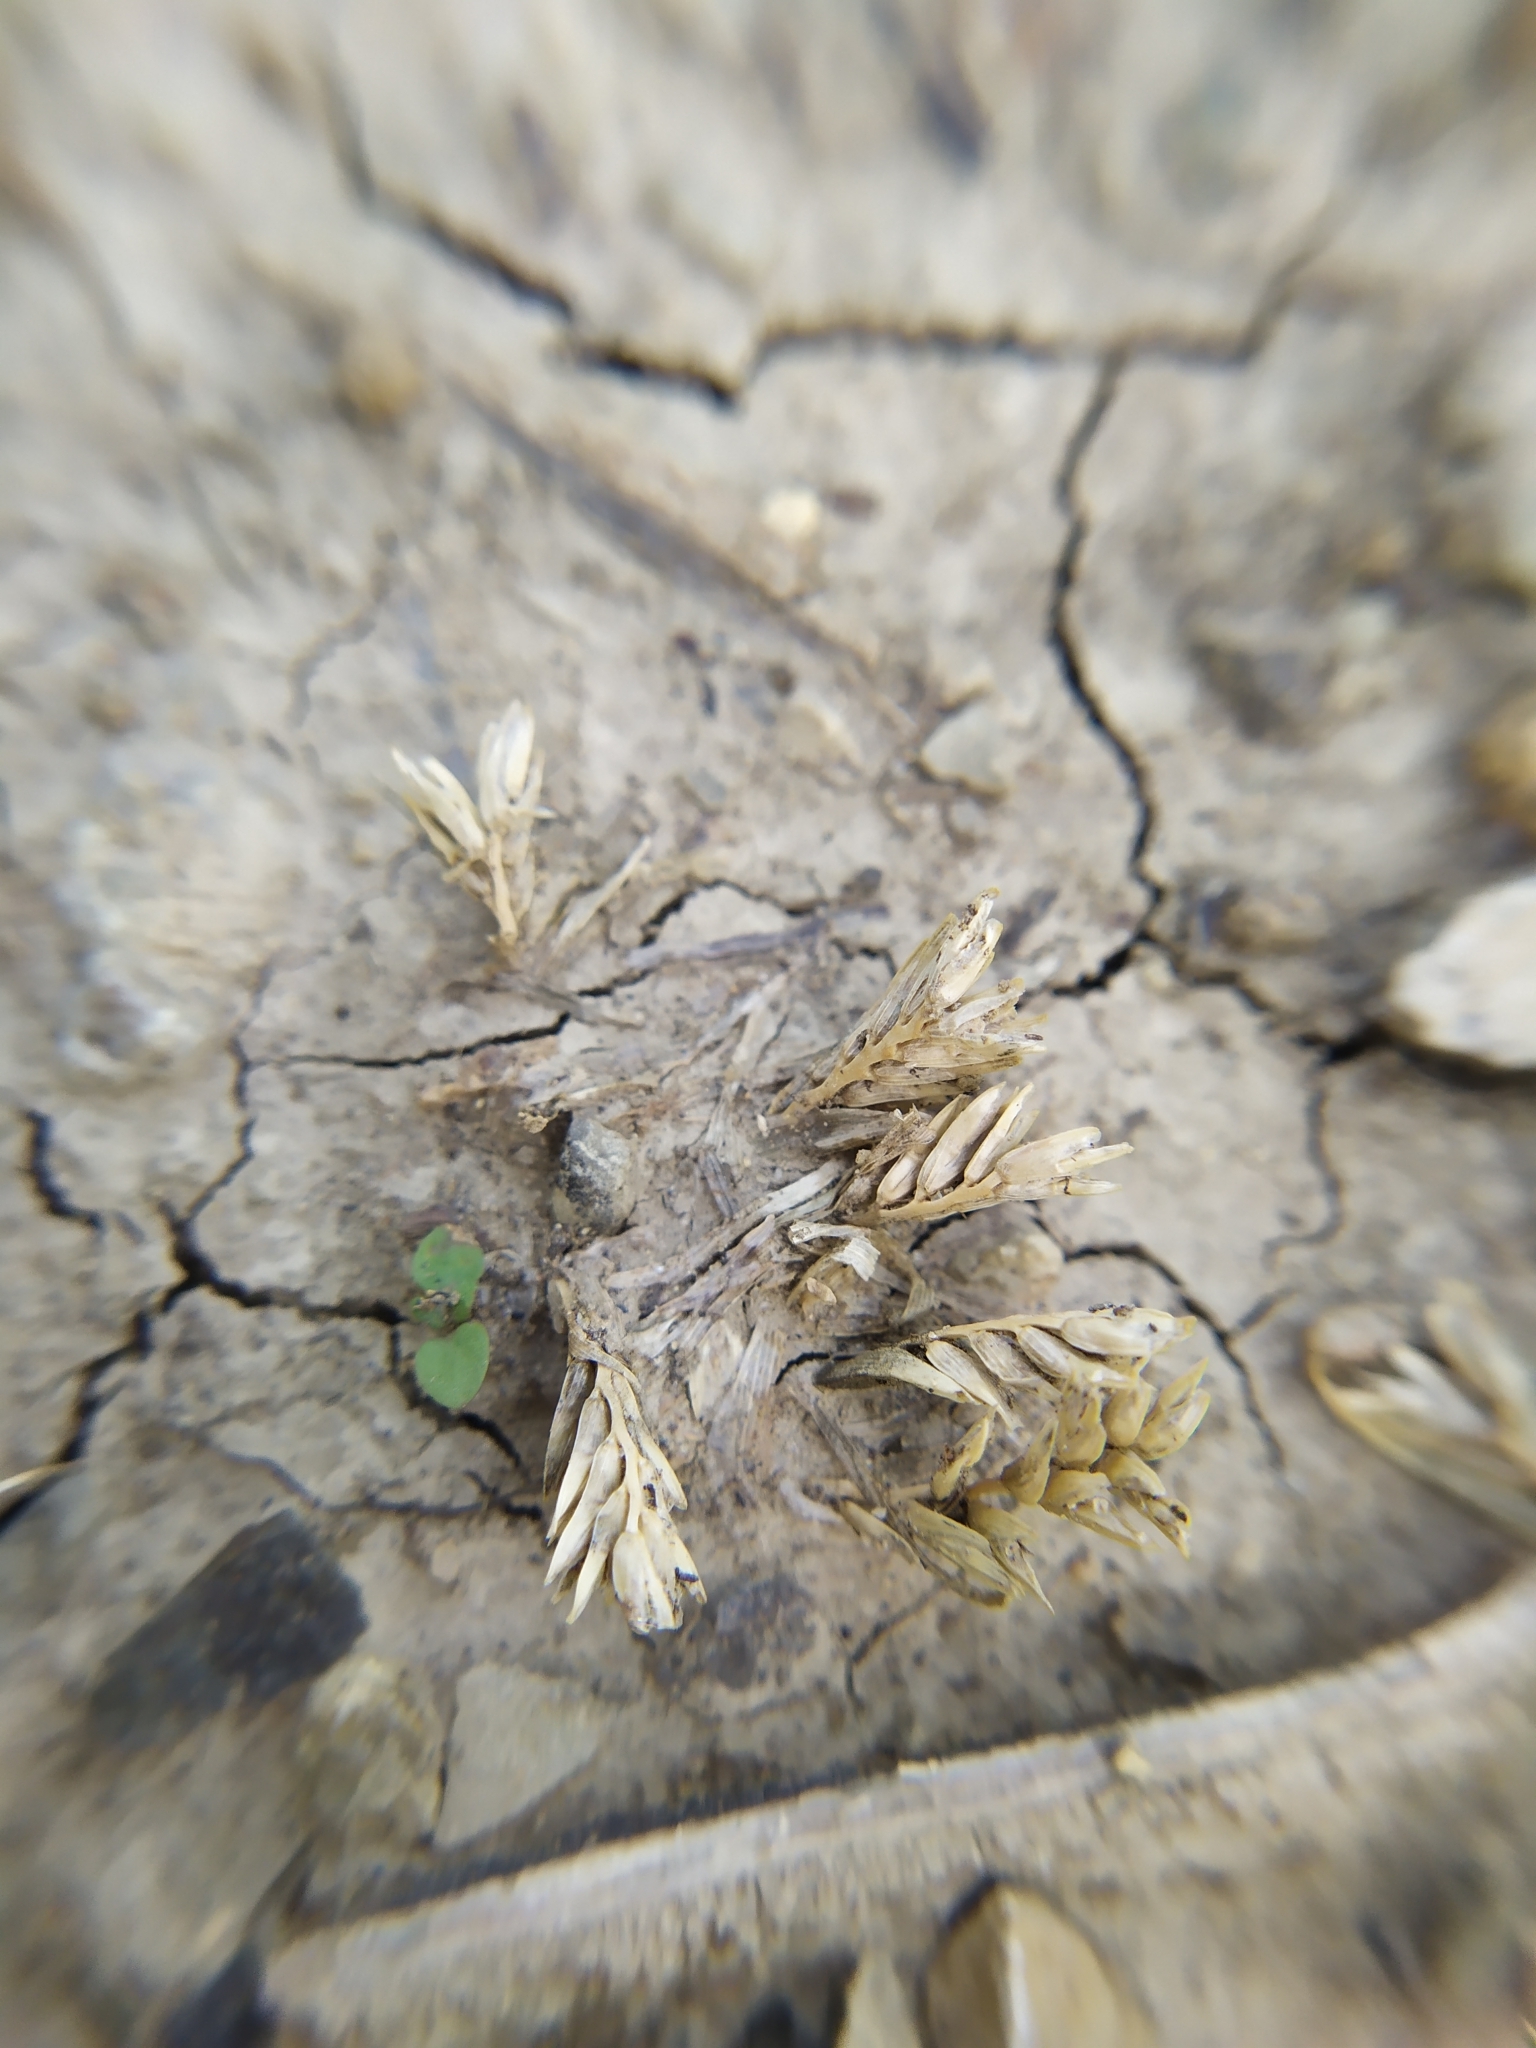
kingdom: Plantae
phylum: Tracheophyta
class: Liliopsida
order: Poales
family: Poaceae
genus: Sclerochloa
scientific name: Sclerochloa dura
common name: Common hardgrass
